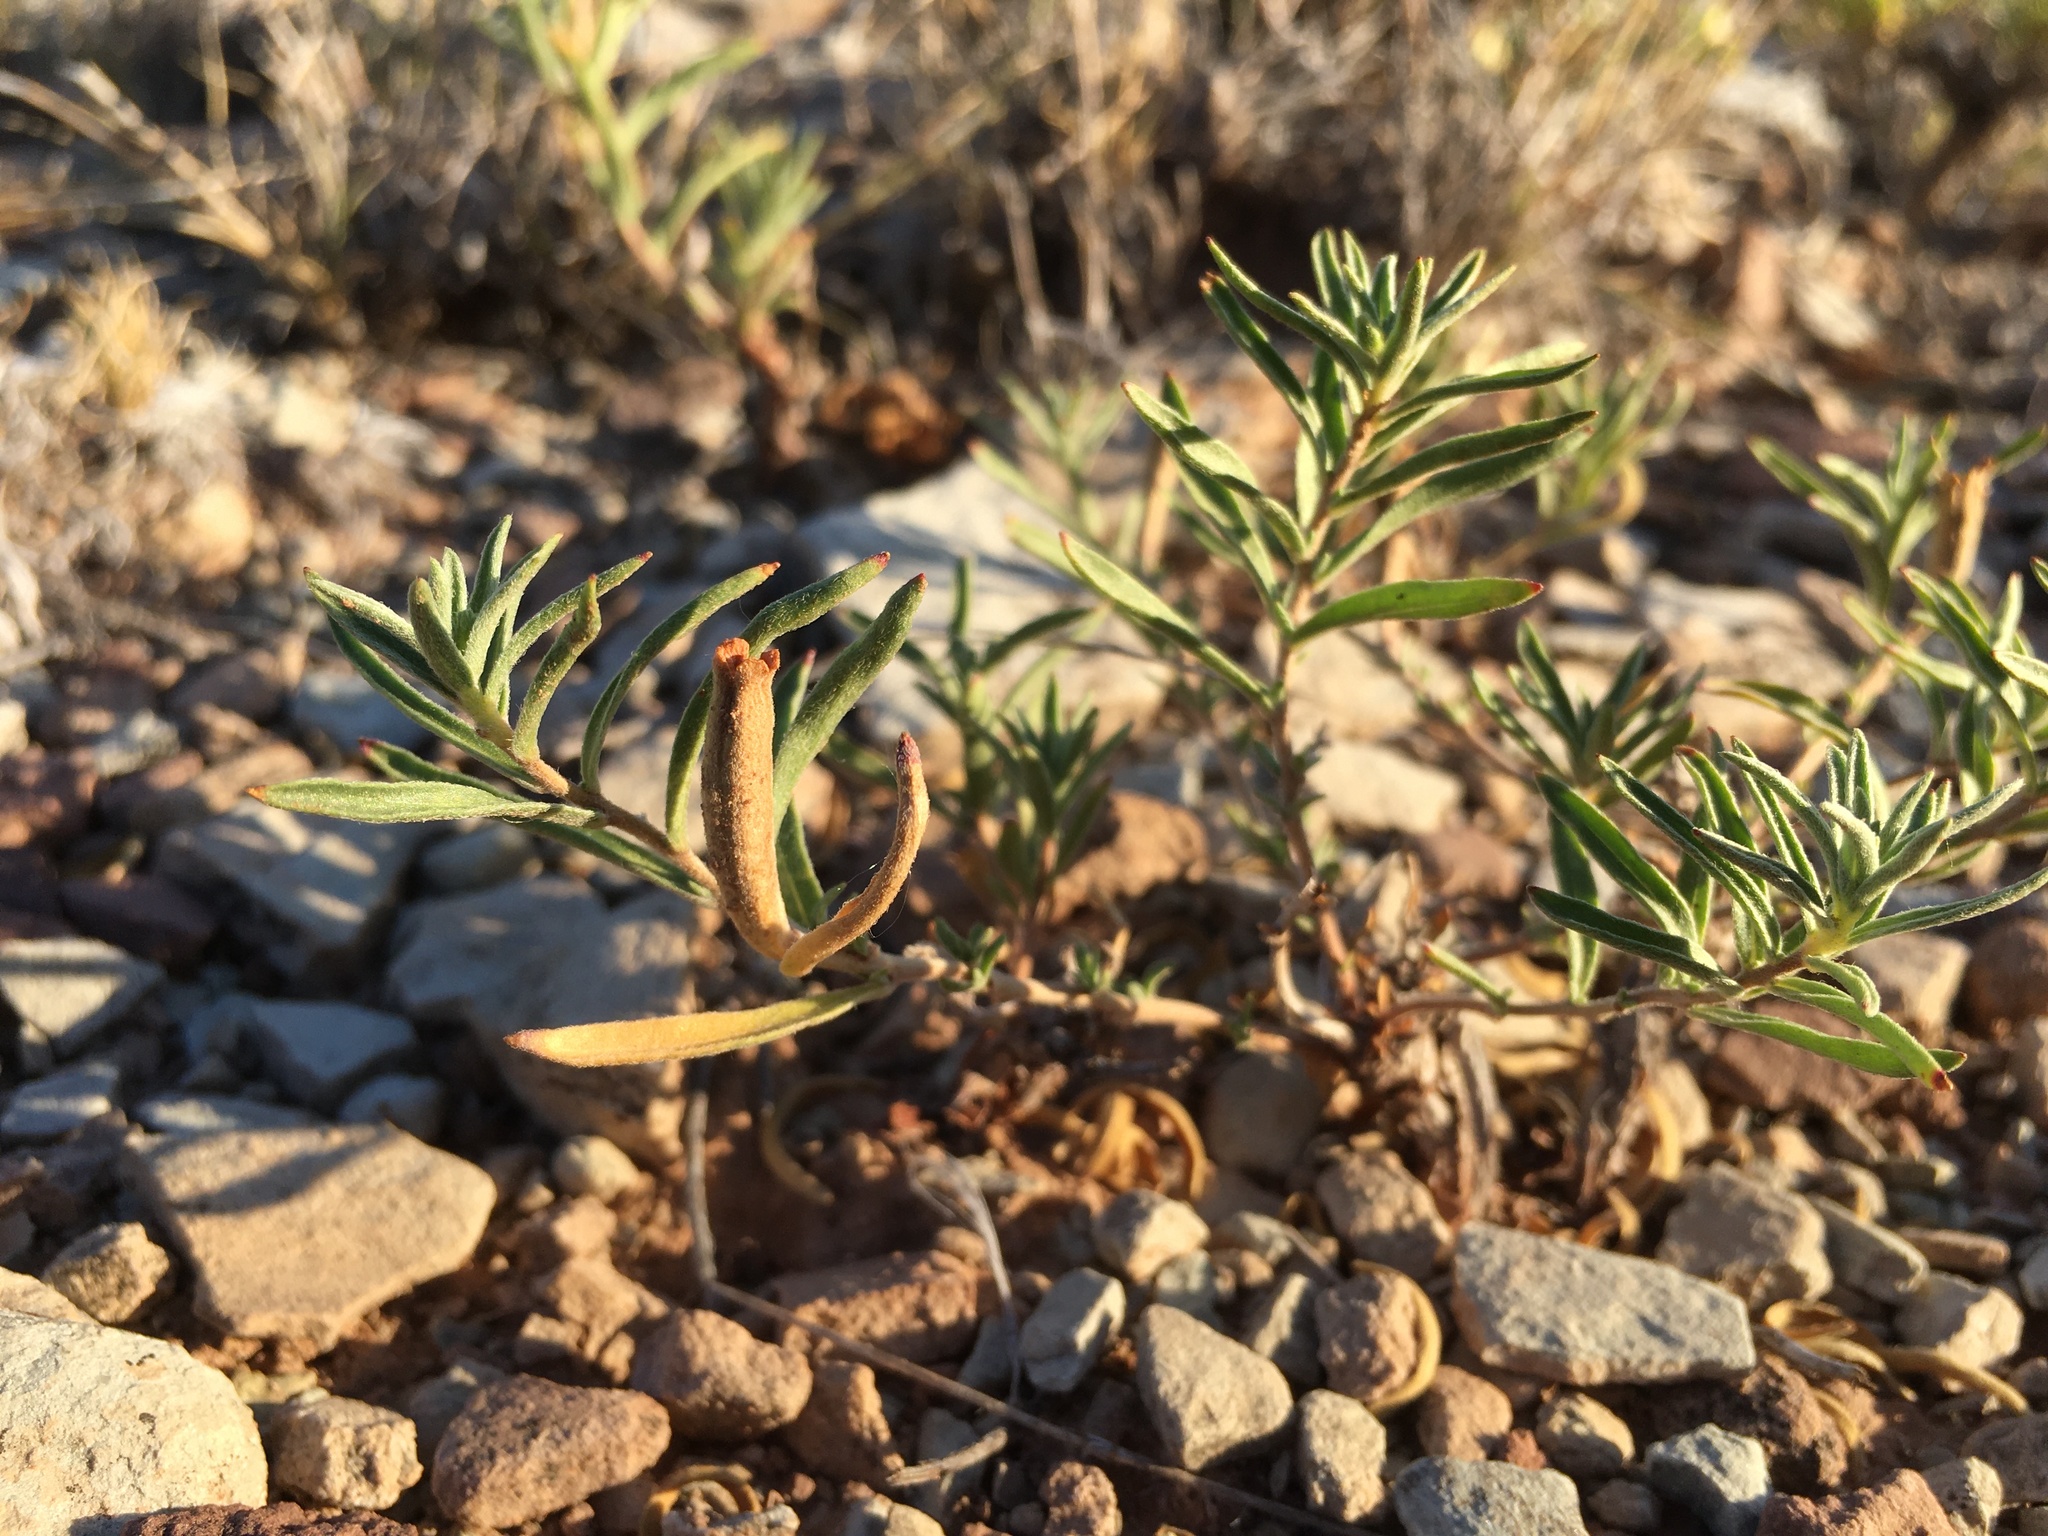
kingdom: Plantae
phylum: Tracheophyta
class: Magnoliopsida
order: Myrtales
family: Onagraceae
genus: Oenothera
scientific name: Oenothera lavandulifolia
